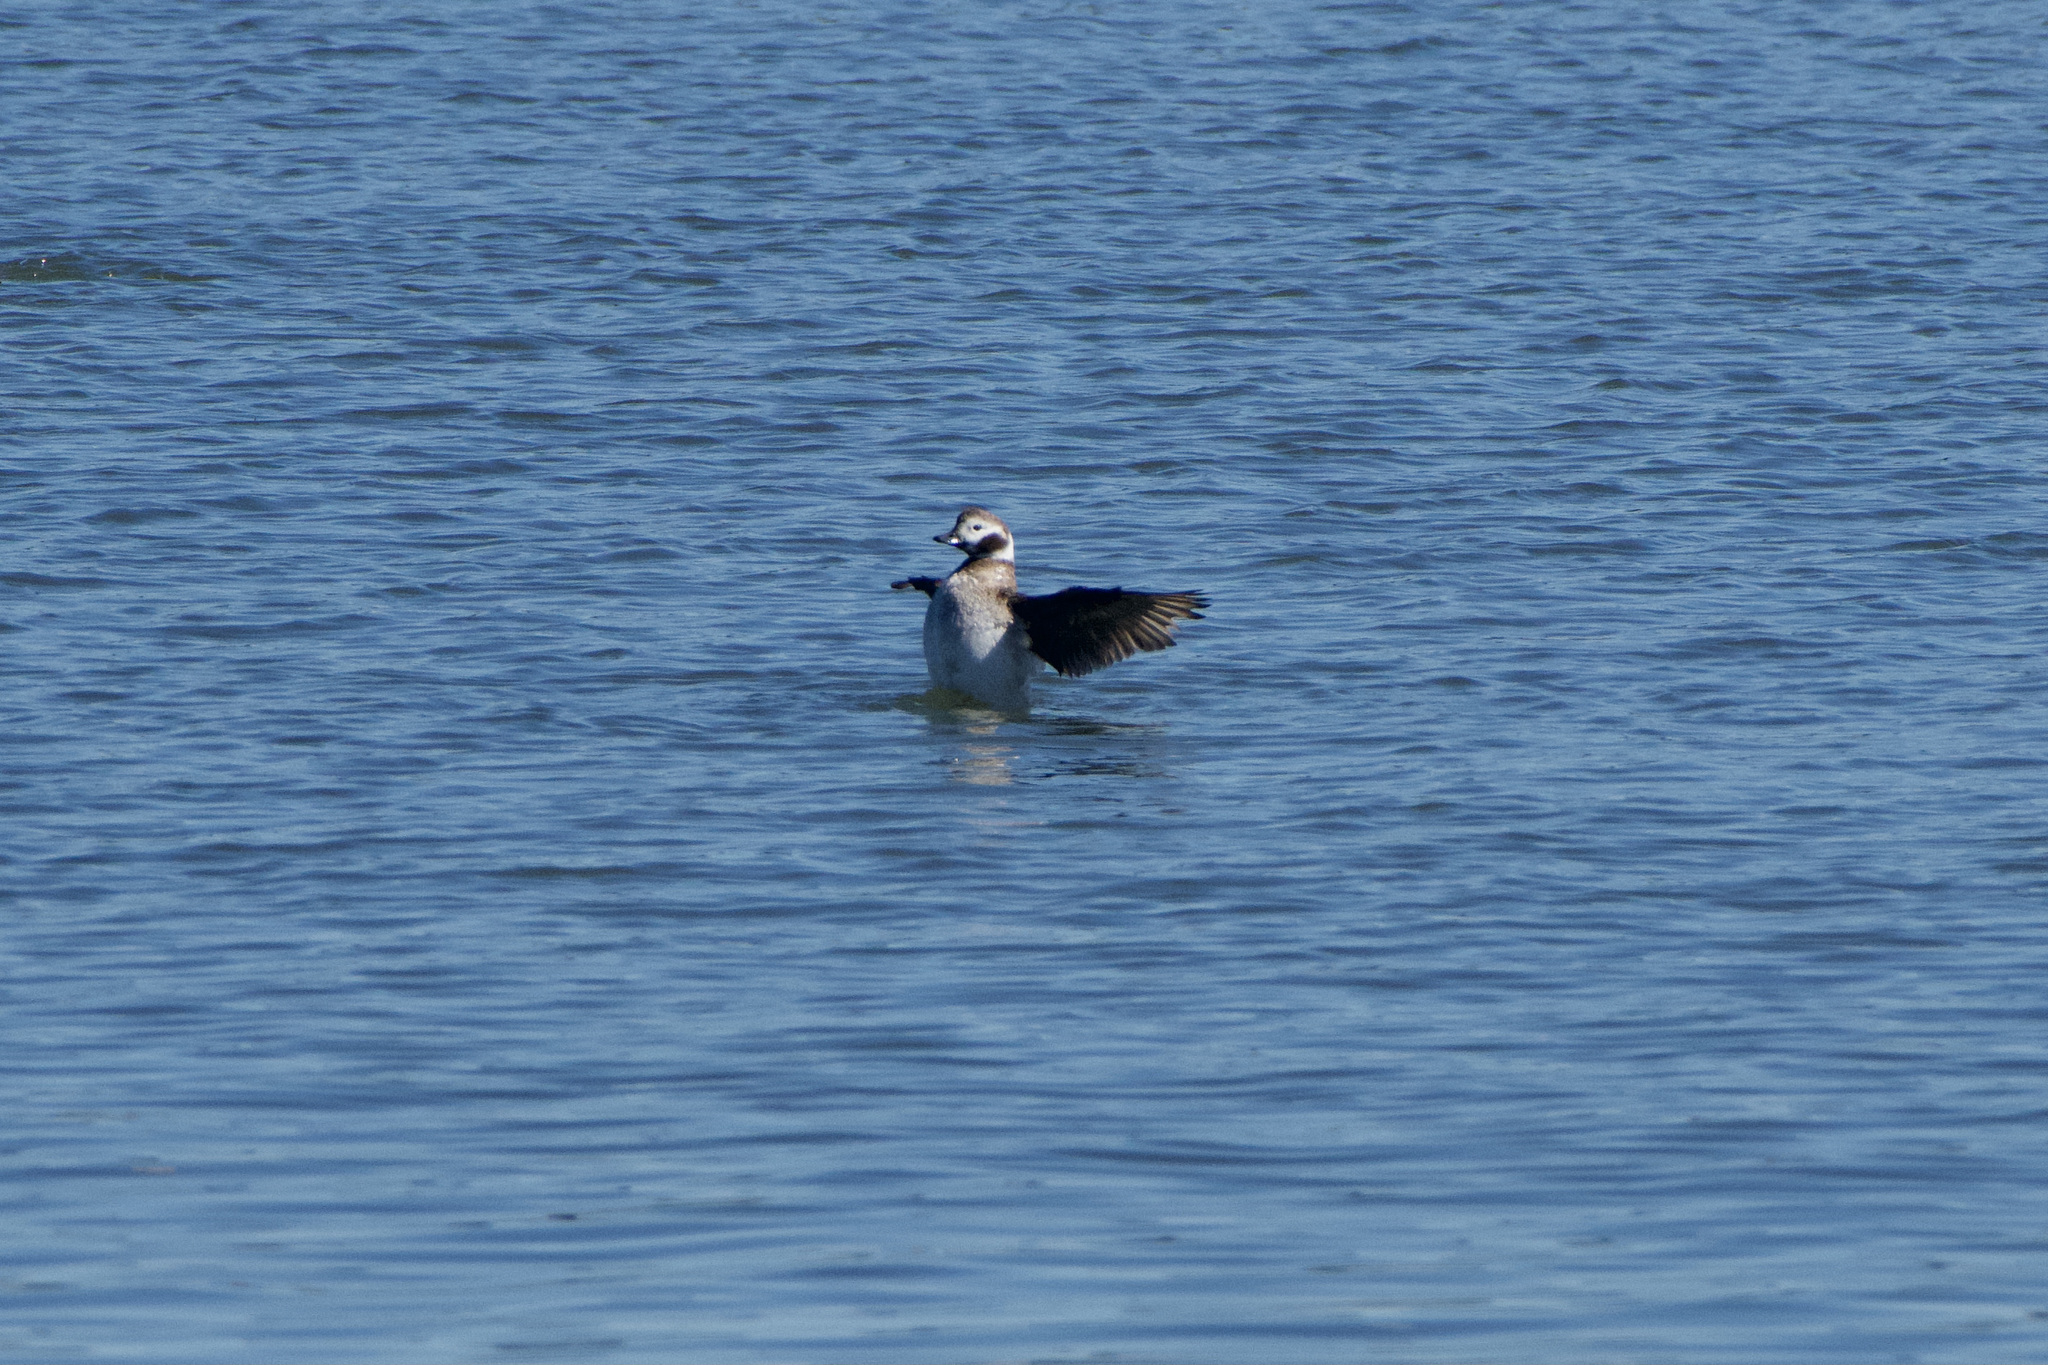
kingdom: Animalia
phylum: Chordata
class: Aves
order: Anseriformes
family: Anatidae
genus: Clangula
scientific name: Clangula hyemalis
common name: Long-tailed duck
